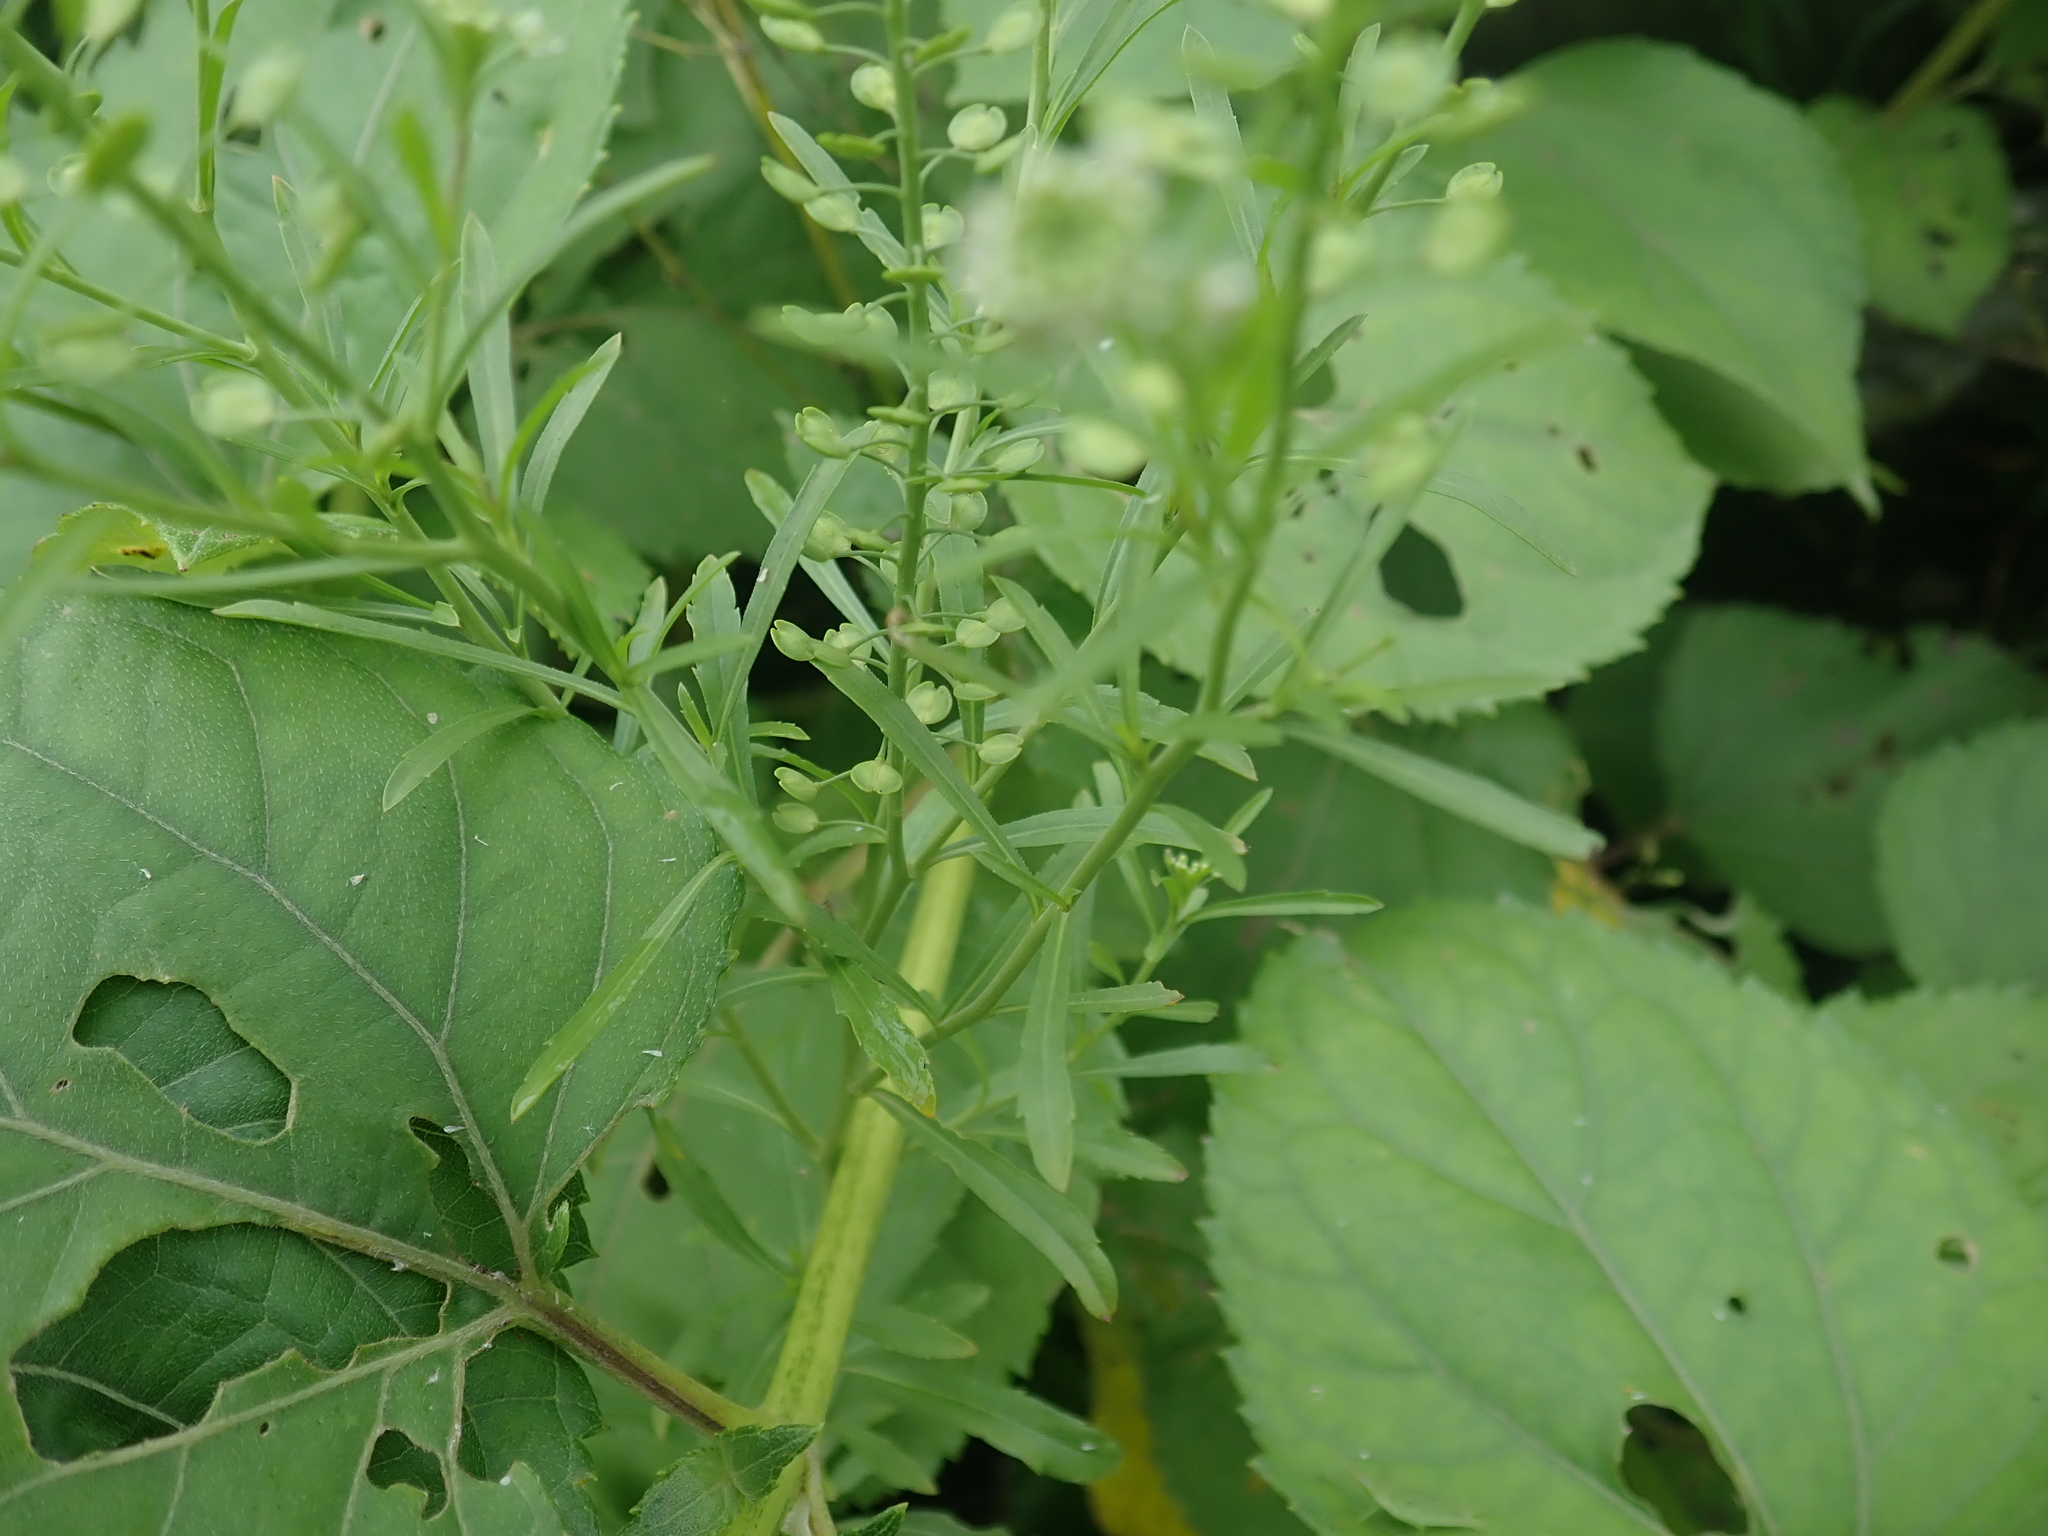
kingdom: Plantae
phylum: Tracheophyta
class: Magnoliopsida
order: Brassicales
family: Brassicaceae
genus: Lepidium
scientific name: Lepidium virginicum
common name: Least pepperwort
